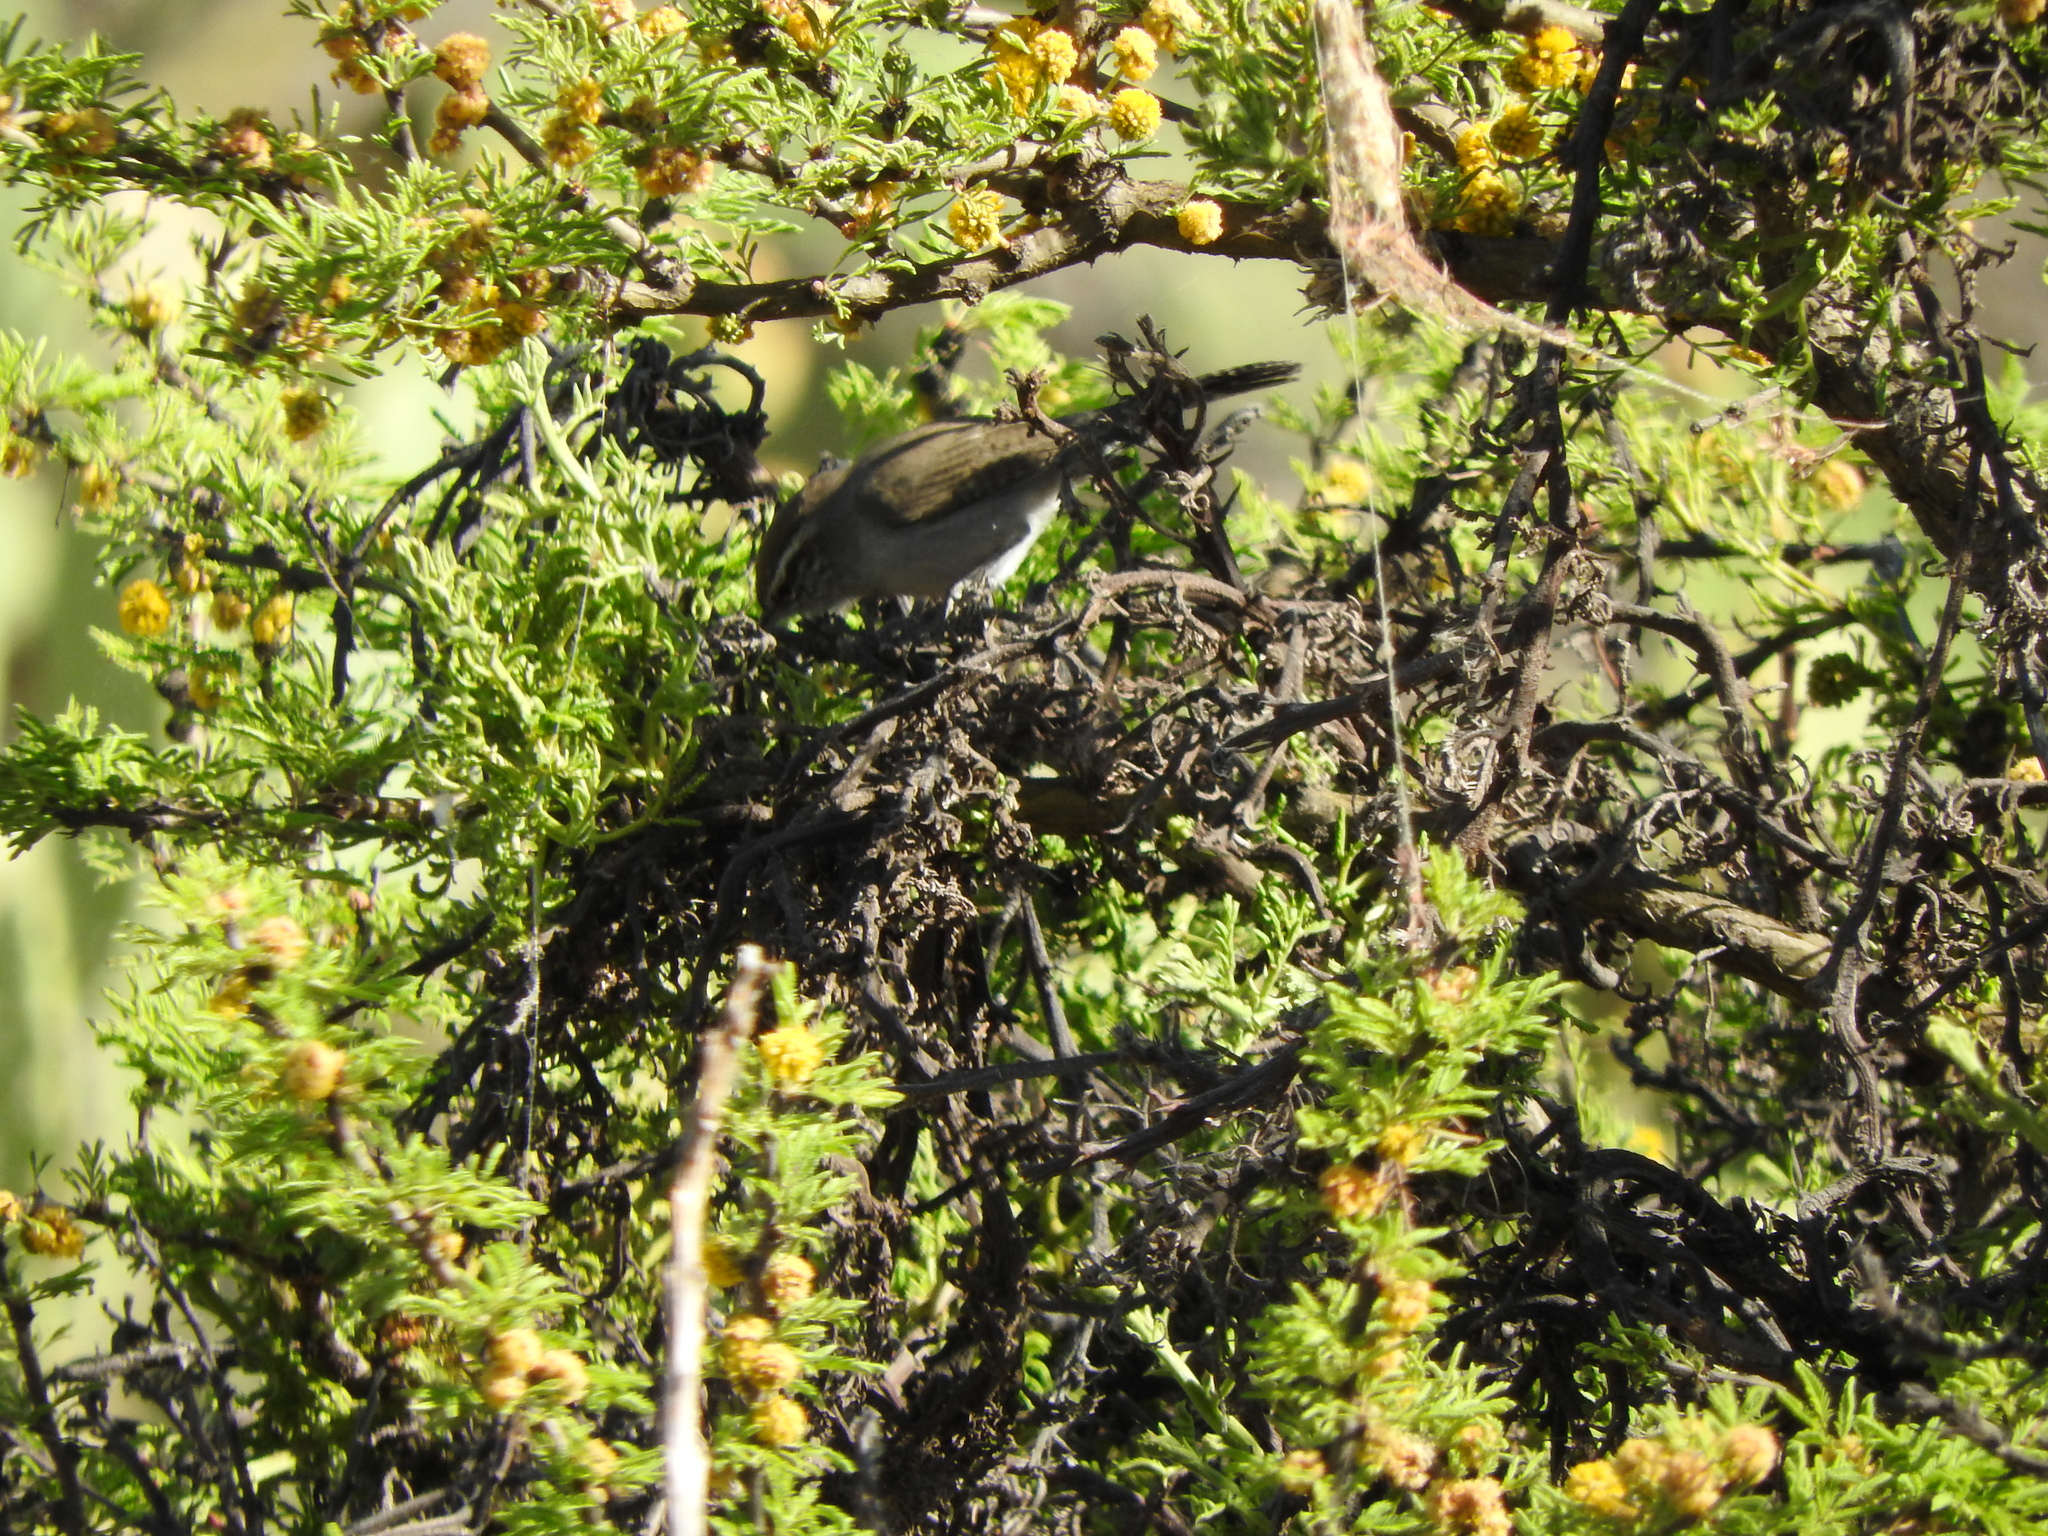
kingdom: Animalia
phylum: Chordata
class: Aves
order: Passeriformes
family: Troglodytidae
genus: Thryomanes
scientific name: Thryomanes bewickii
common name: Bewick's wren
